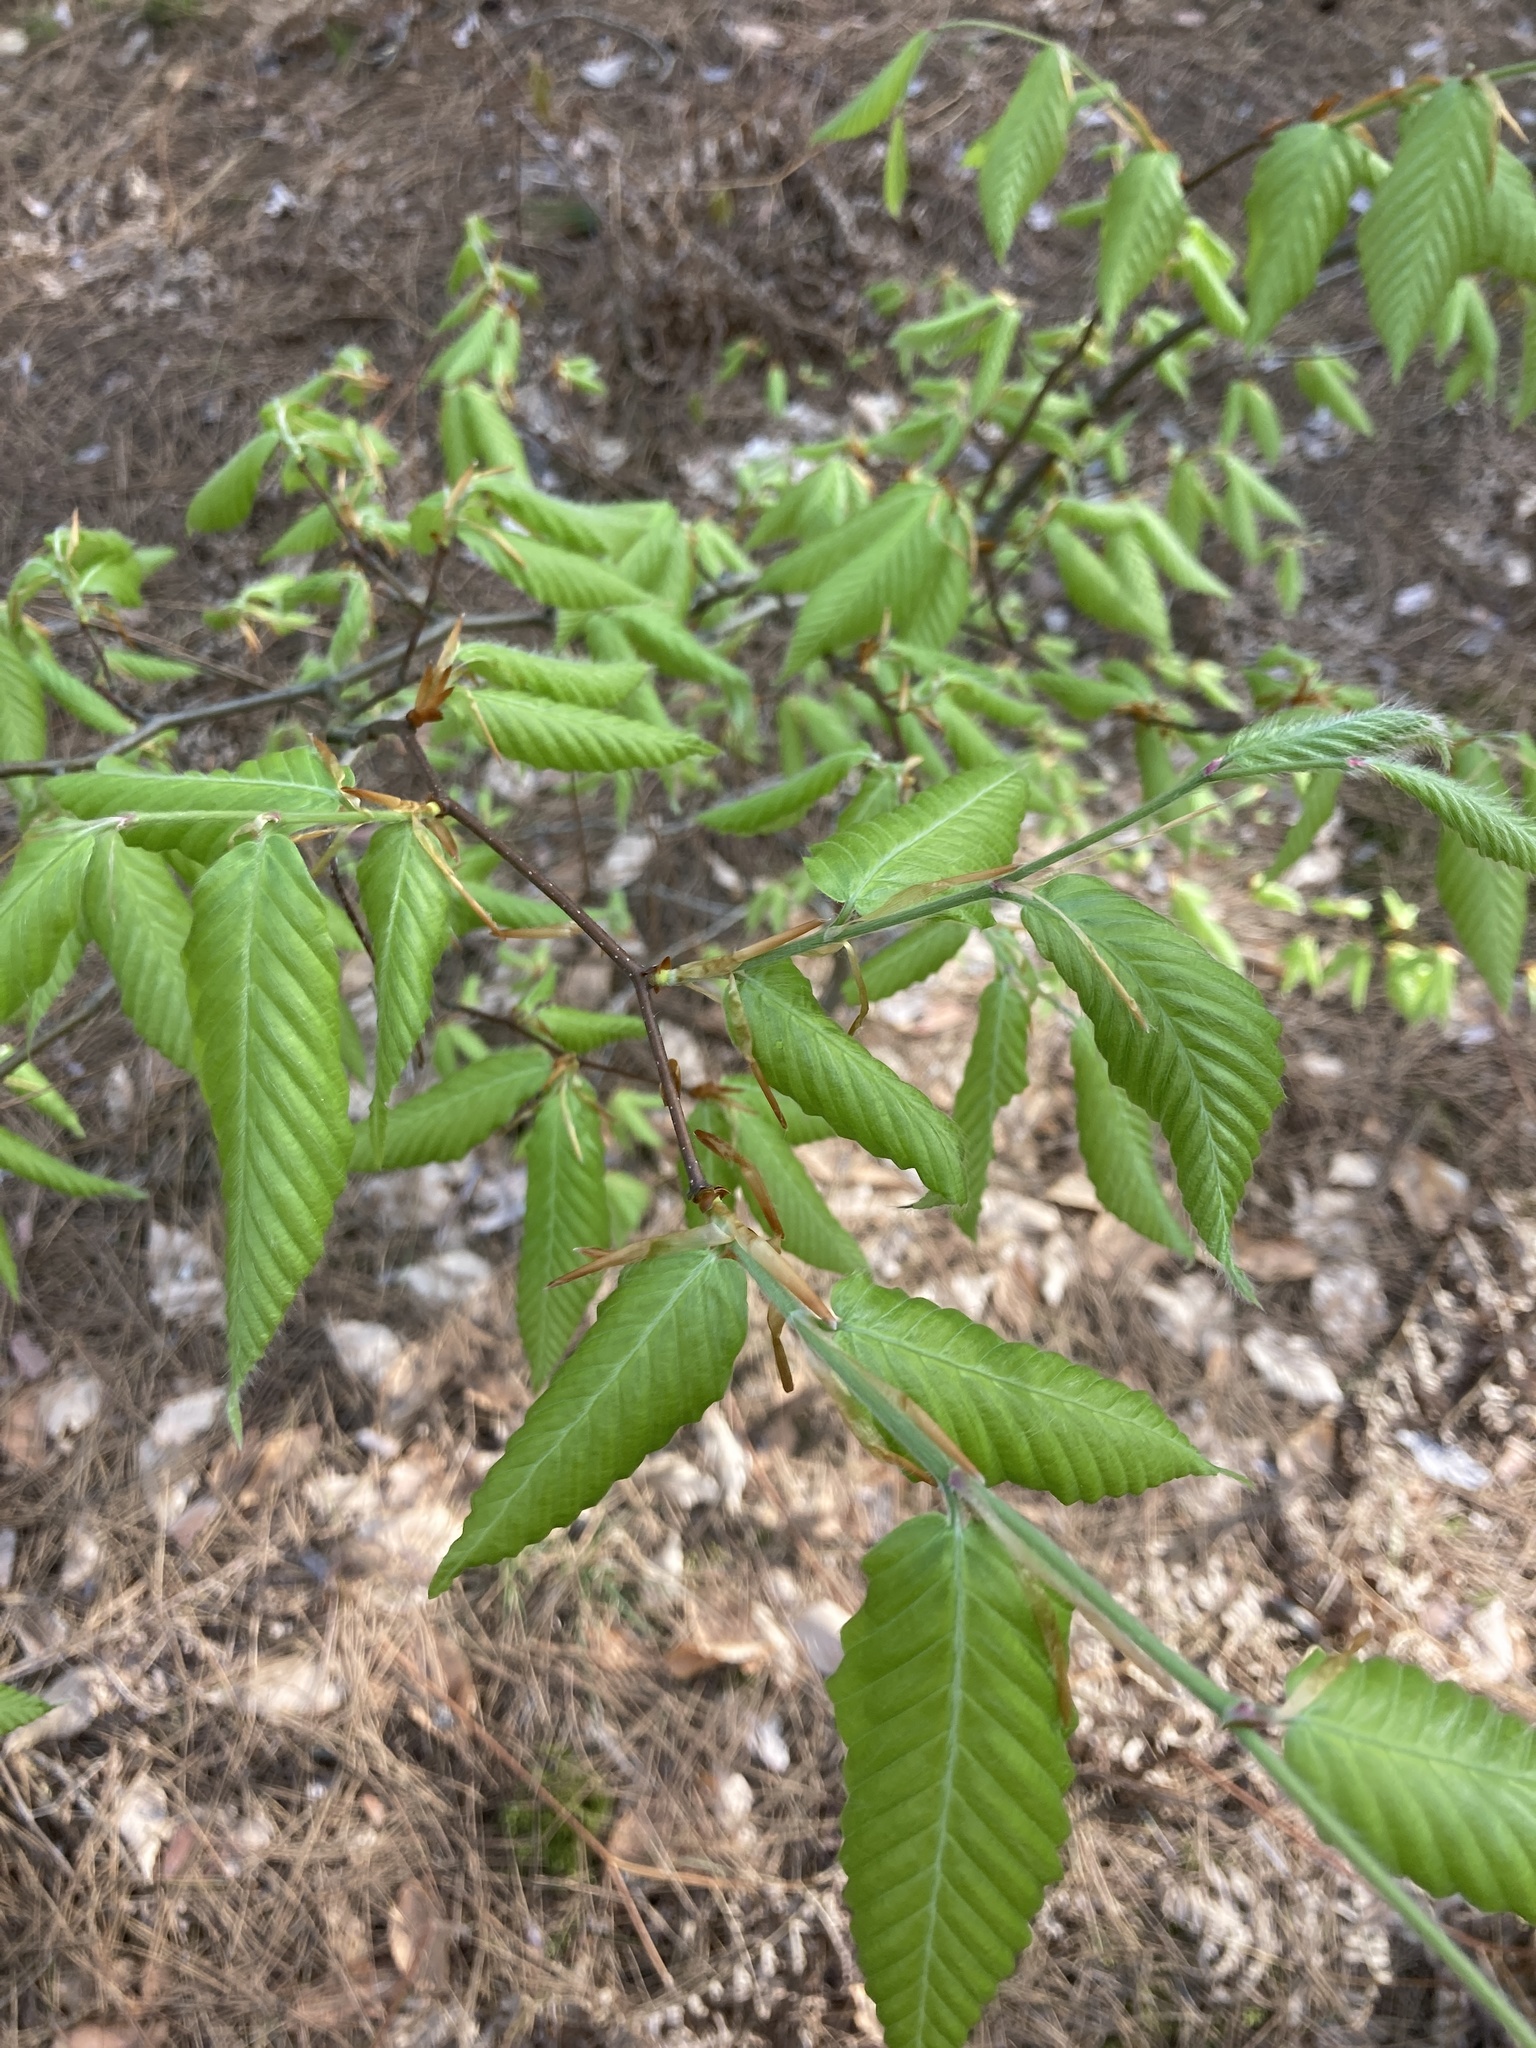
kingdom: Plantae
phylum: Tracheophyta
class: Magnoliopsida
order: Fagales
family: Fagaceae
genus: Fagus
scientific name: Fagus grandifolia
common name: American beech
